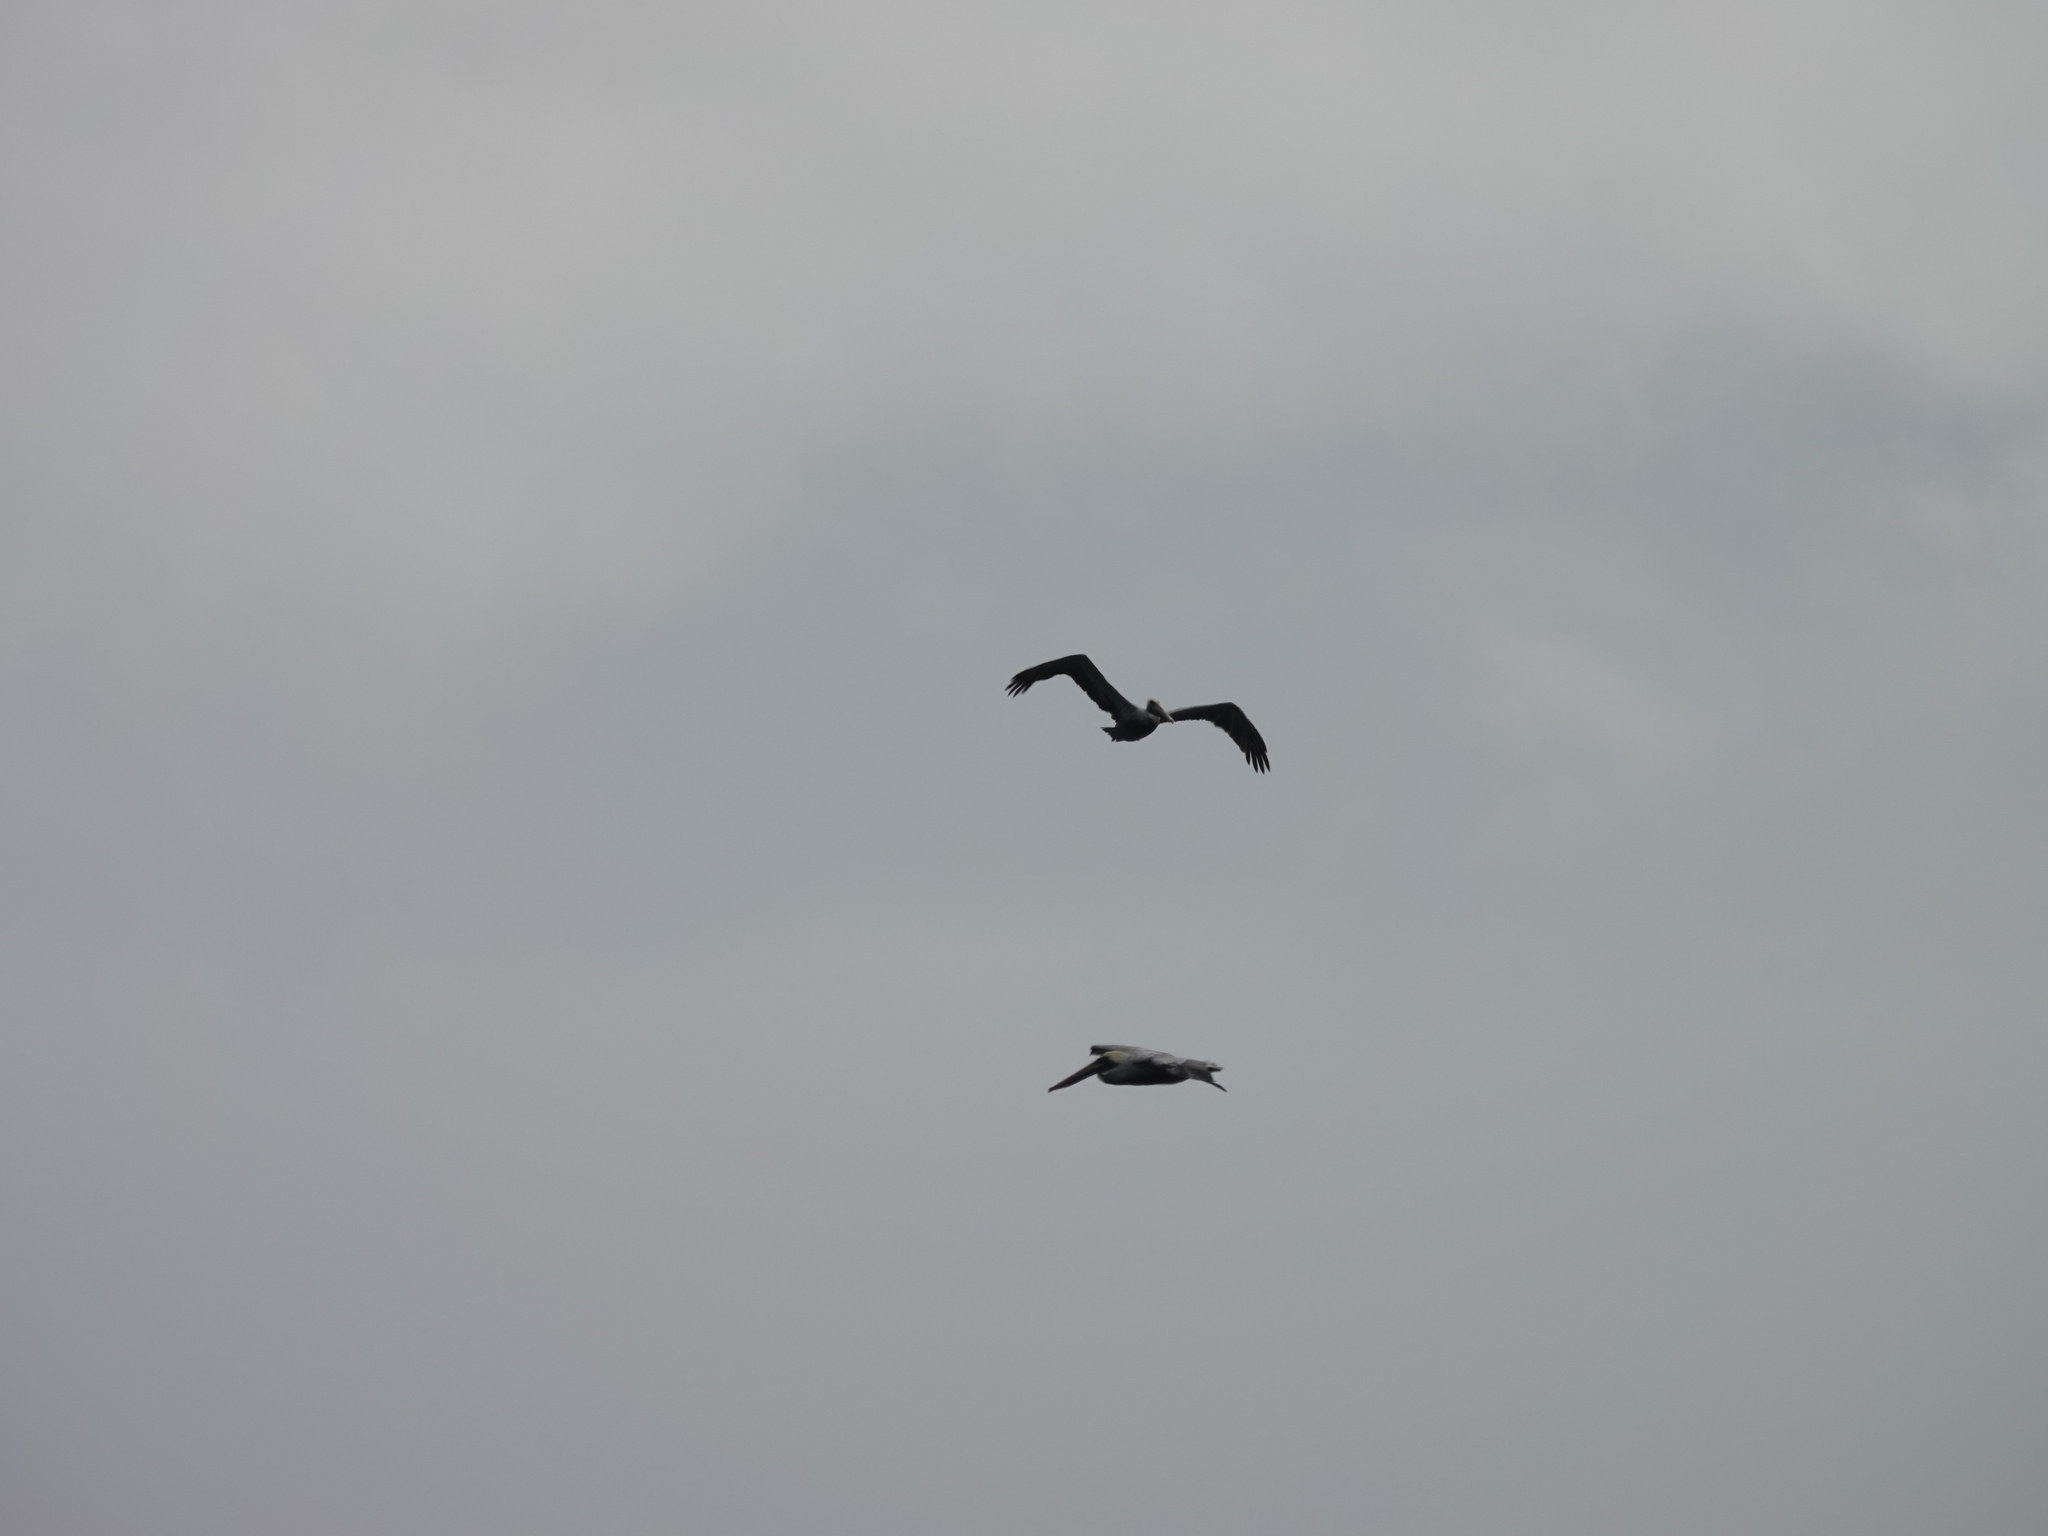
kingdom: Animalia
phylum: Chordata
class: Aves
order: Pelecaniformes
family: Pelecanidae
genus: Pelecanus
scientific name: Pelecanus occidentalis
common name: Brown pelican
